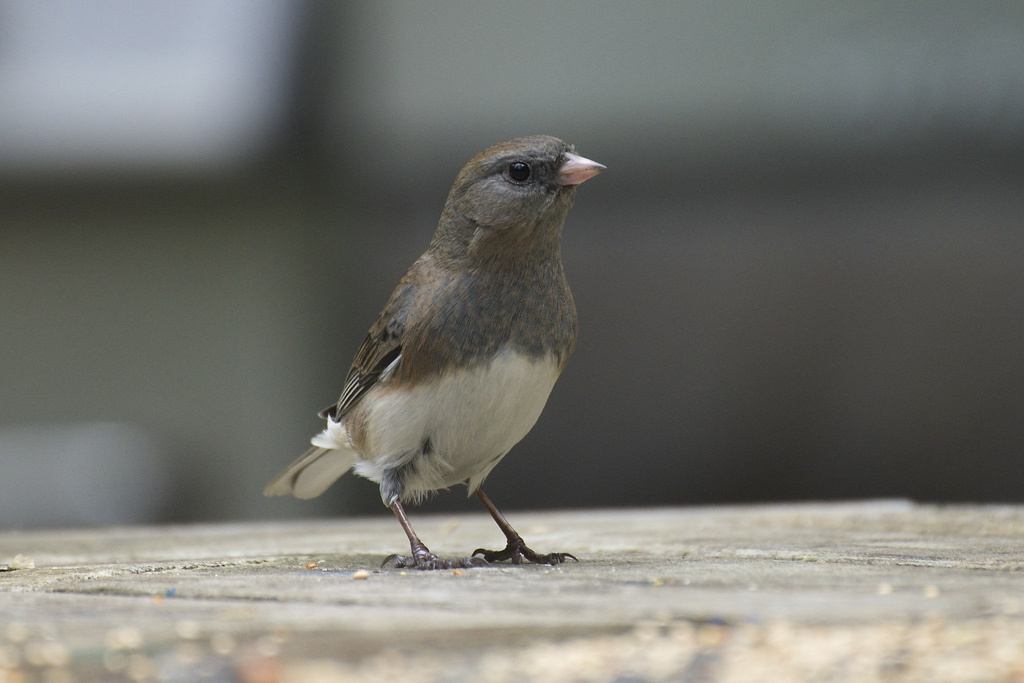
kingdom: Animalia
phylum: Chordata
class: Aves
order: Passeriformes
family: Passerellidae
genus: Junco
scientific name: Junco hyemalis
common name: Dark-eyed junco
